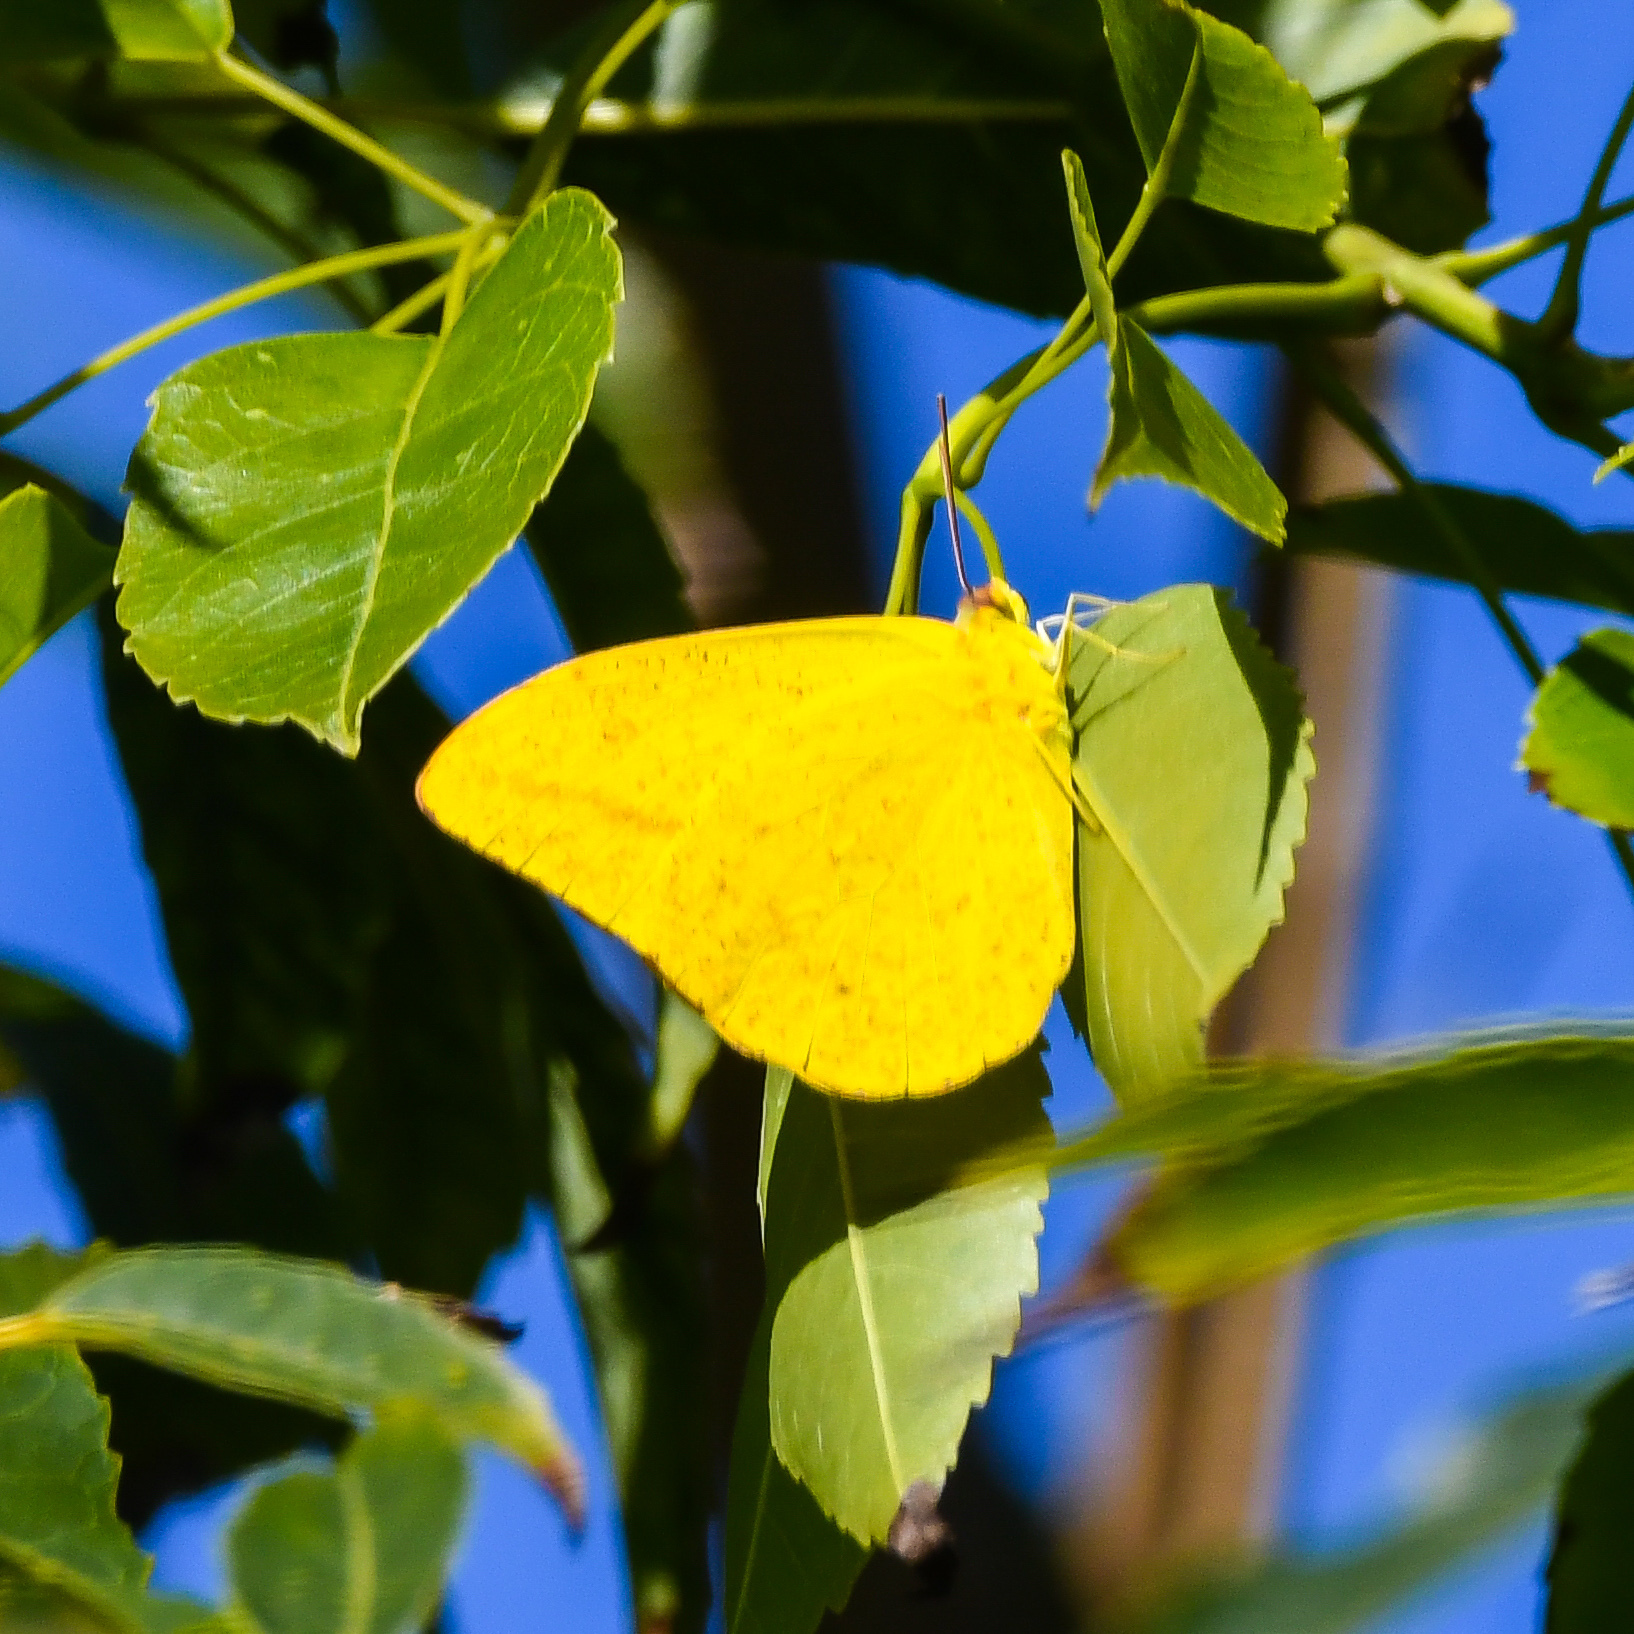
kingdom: Animalia
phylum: Arthropoda
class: Insecta
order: Lepidoptera
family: Pieridae
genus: Phoebis
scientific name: Phoebis agarithe
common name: Large orange sulphur
